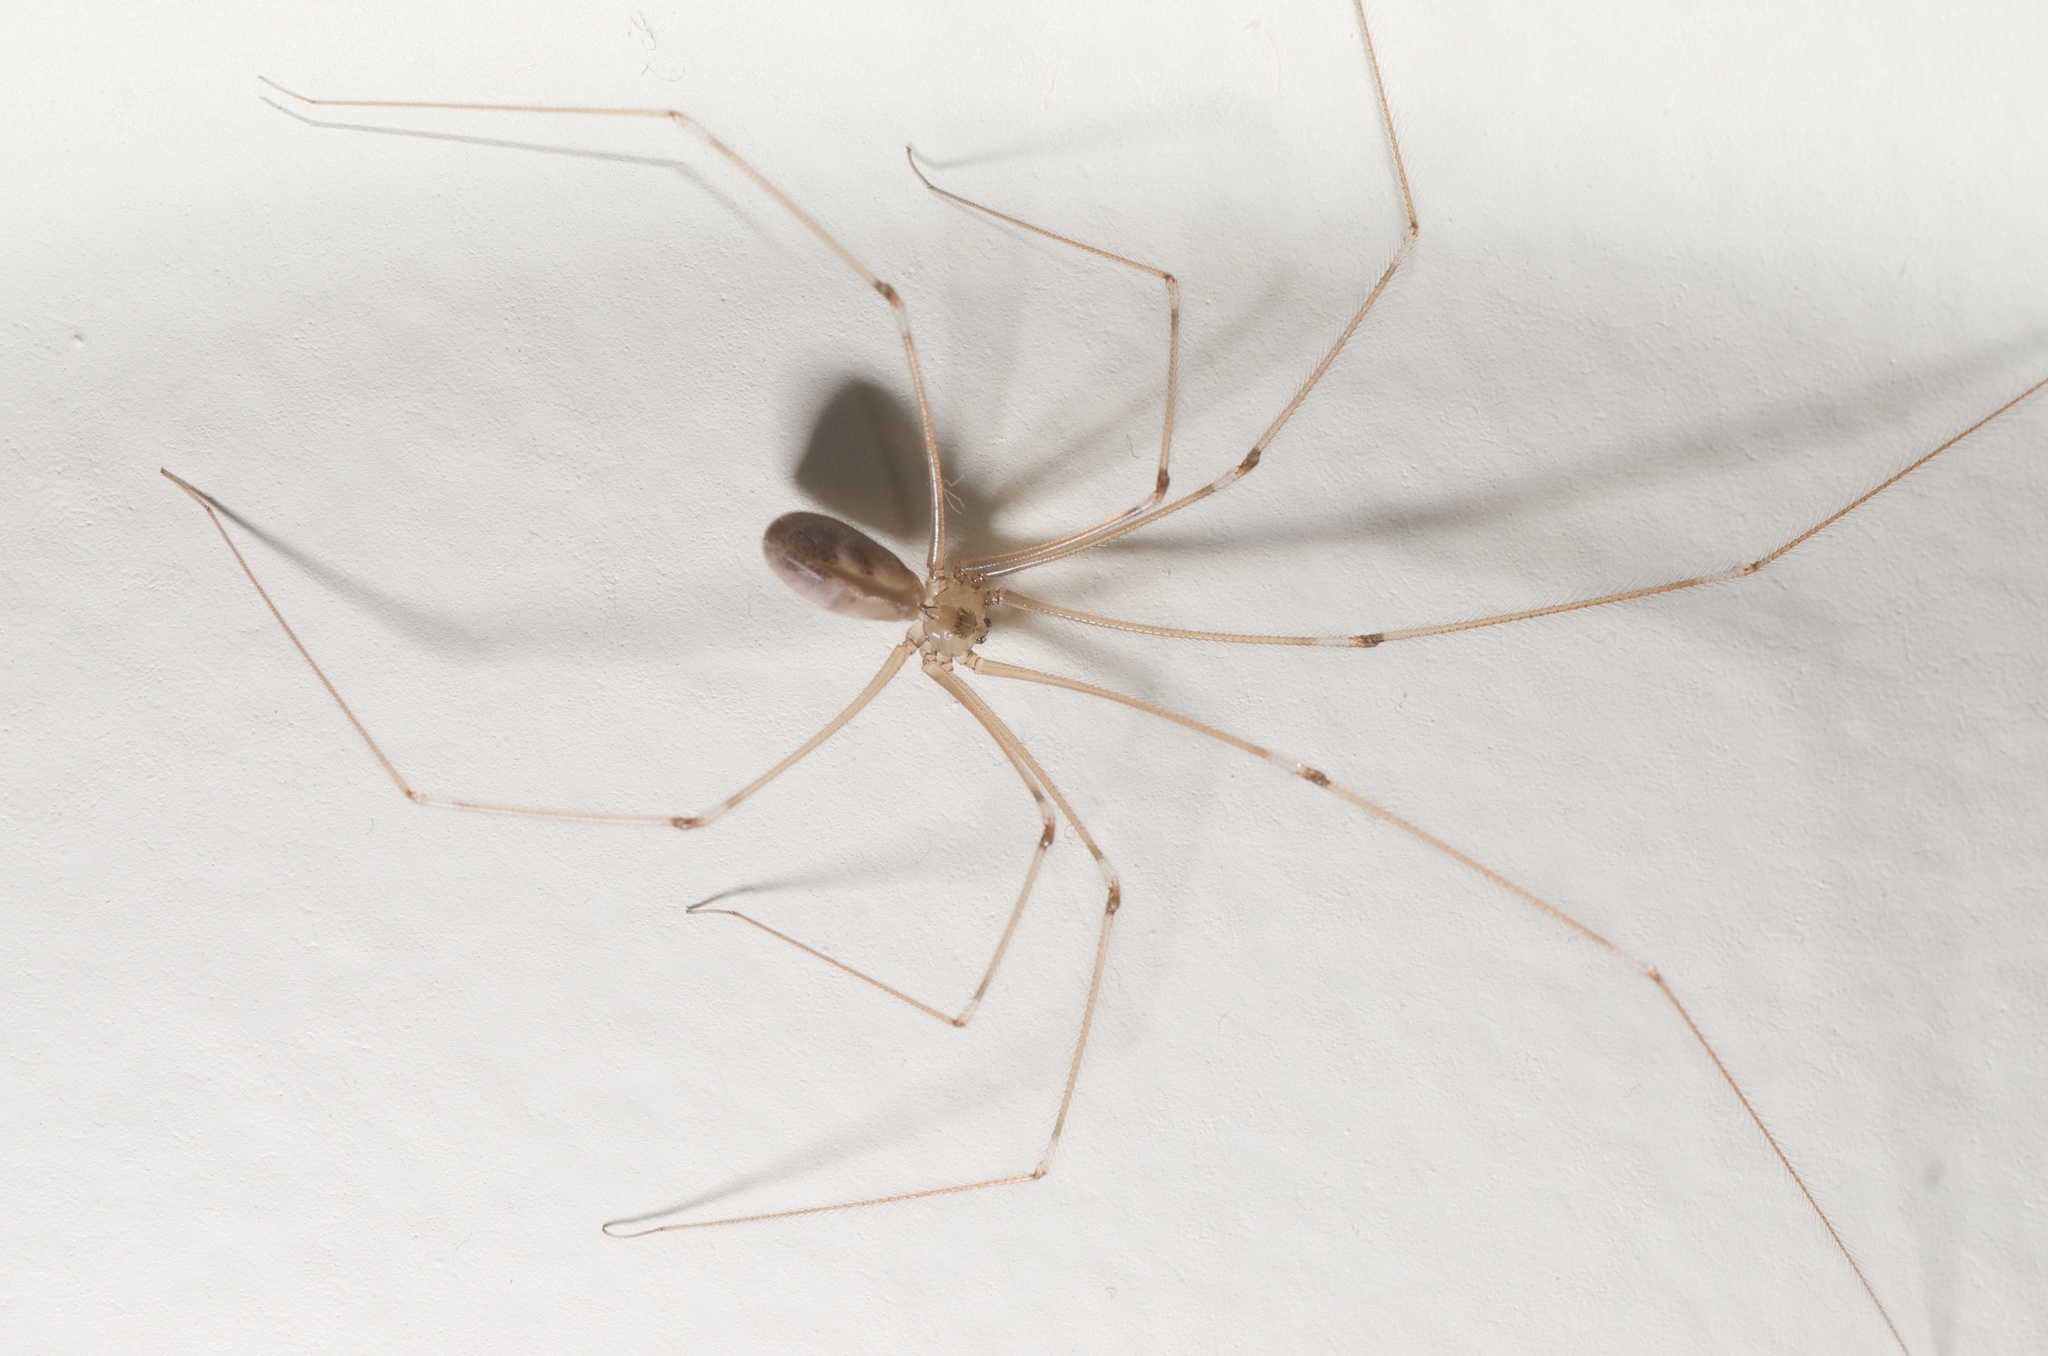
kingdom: Animalia
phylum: Arthropoda
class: Arachnida
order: Araneae
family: Pholcidae
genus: Pholcus
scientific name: Pholcus phalangioides
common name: Longbodied cellar spider
